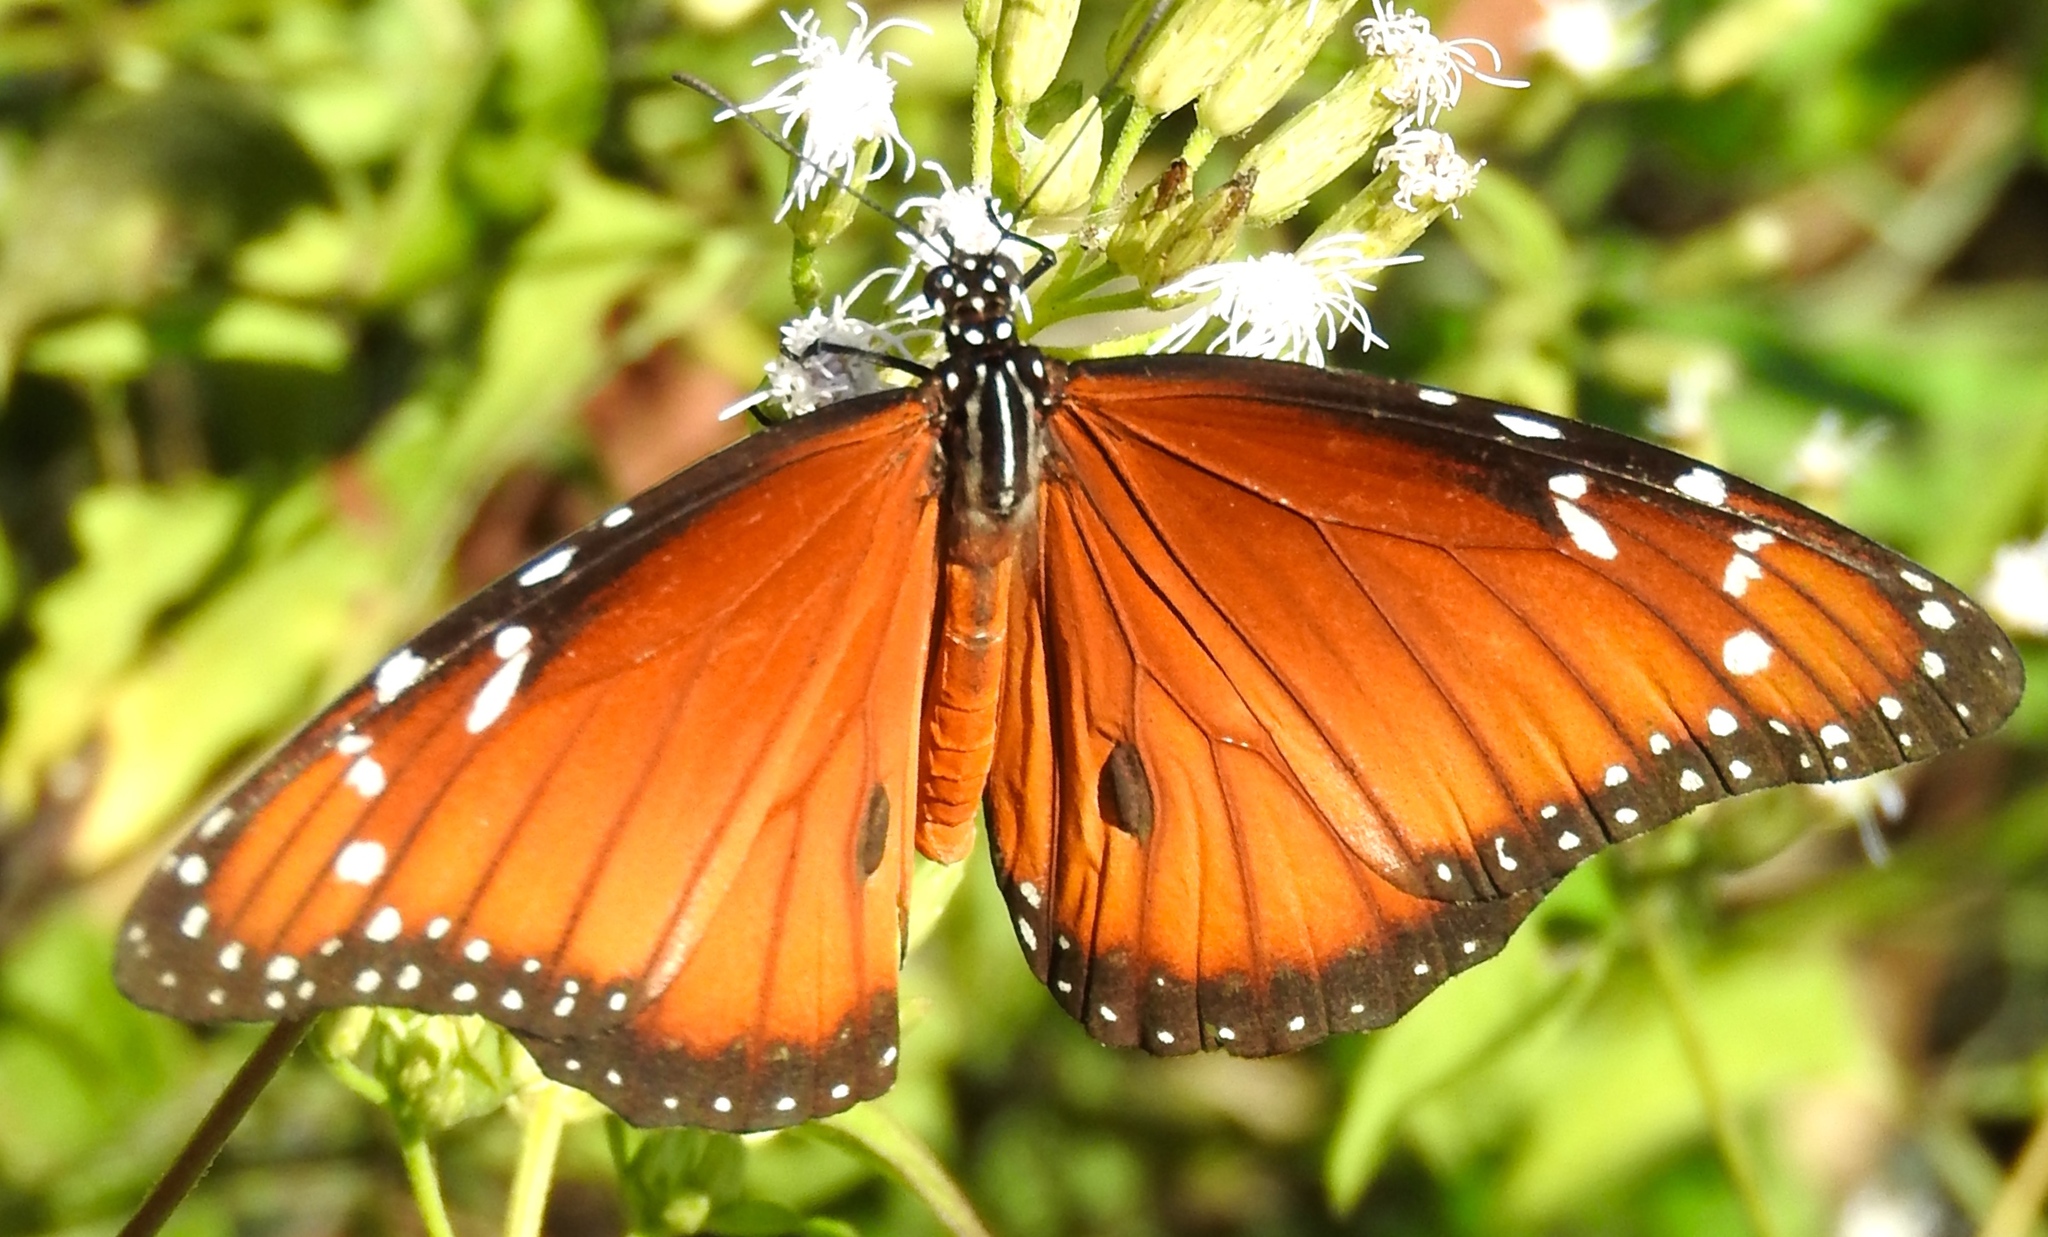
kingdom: Animalia
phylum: Arthropoda
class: Insecta
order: Lepidoptera
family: Nymphalidae
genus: Danaus
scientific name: Danaus eresimus
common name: Soldier
